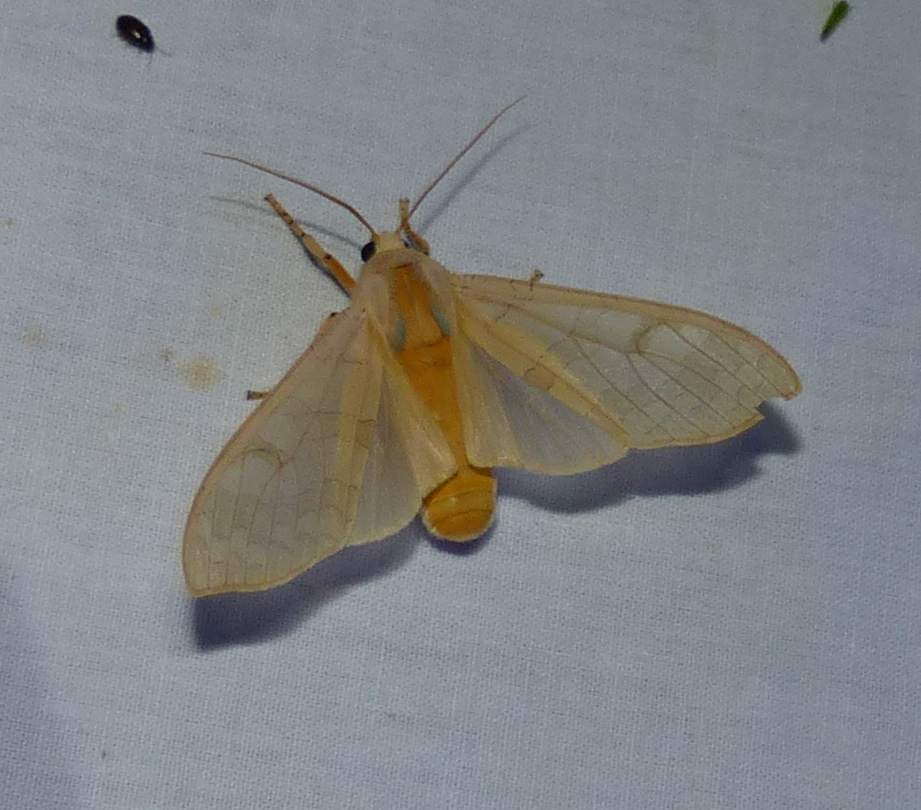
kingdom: Animalia
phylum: Arthropoda
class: Insecta
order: Lepidoptera
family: Erebidae
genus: Halysidota
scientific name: Halysidota tessellaris
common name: Banded tussock moth
